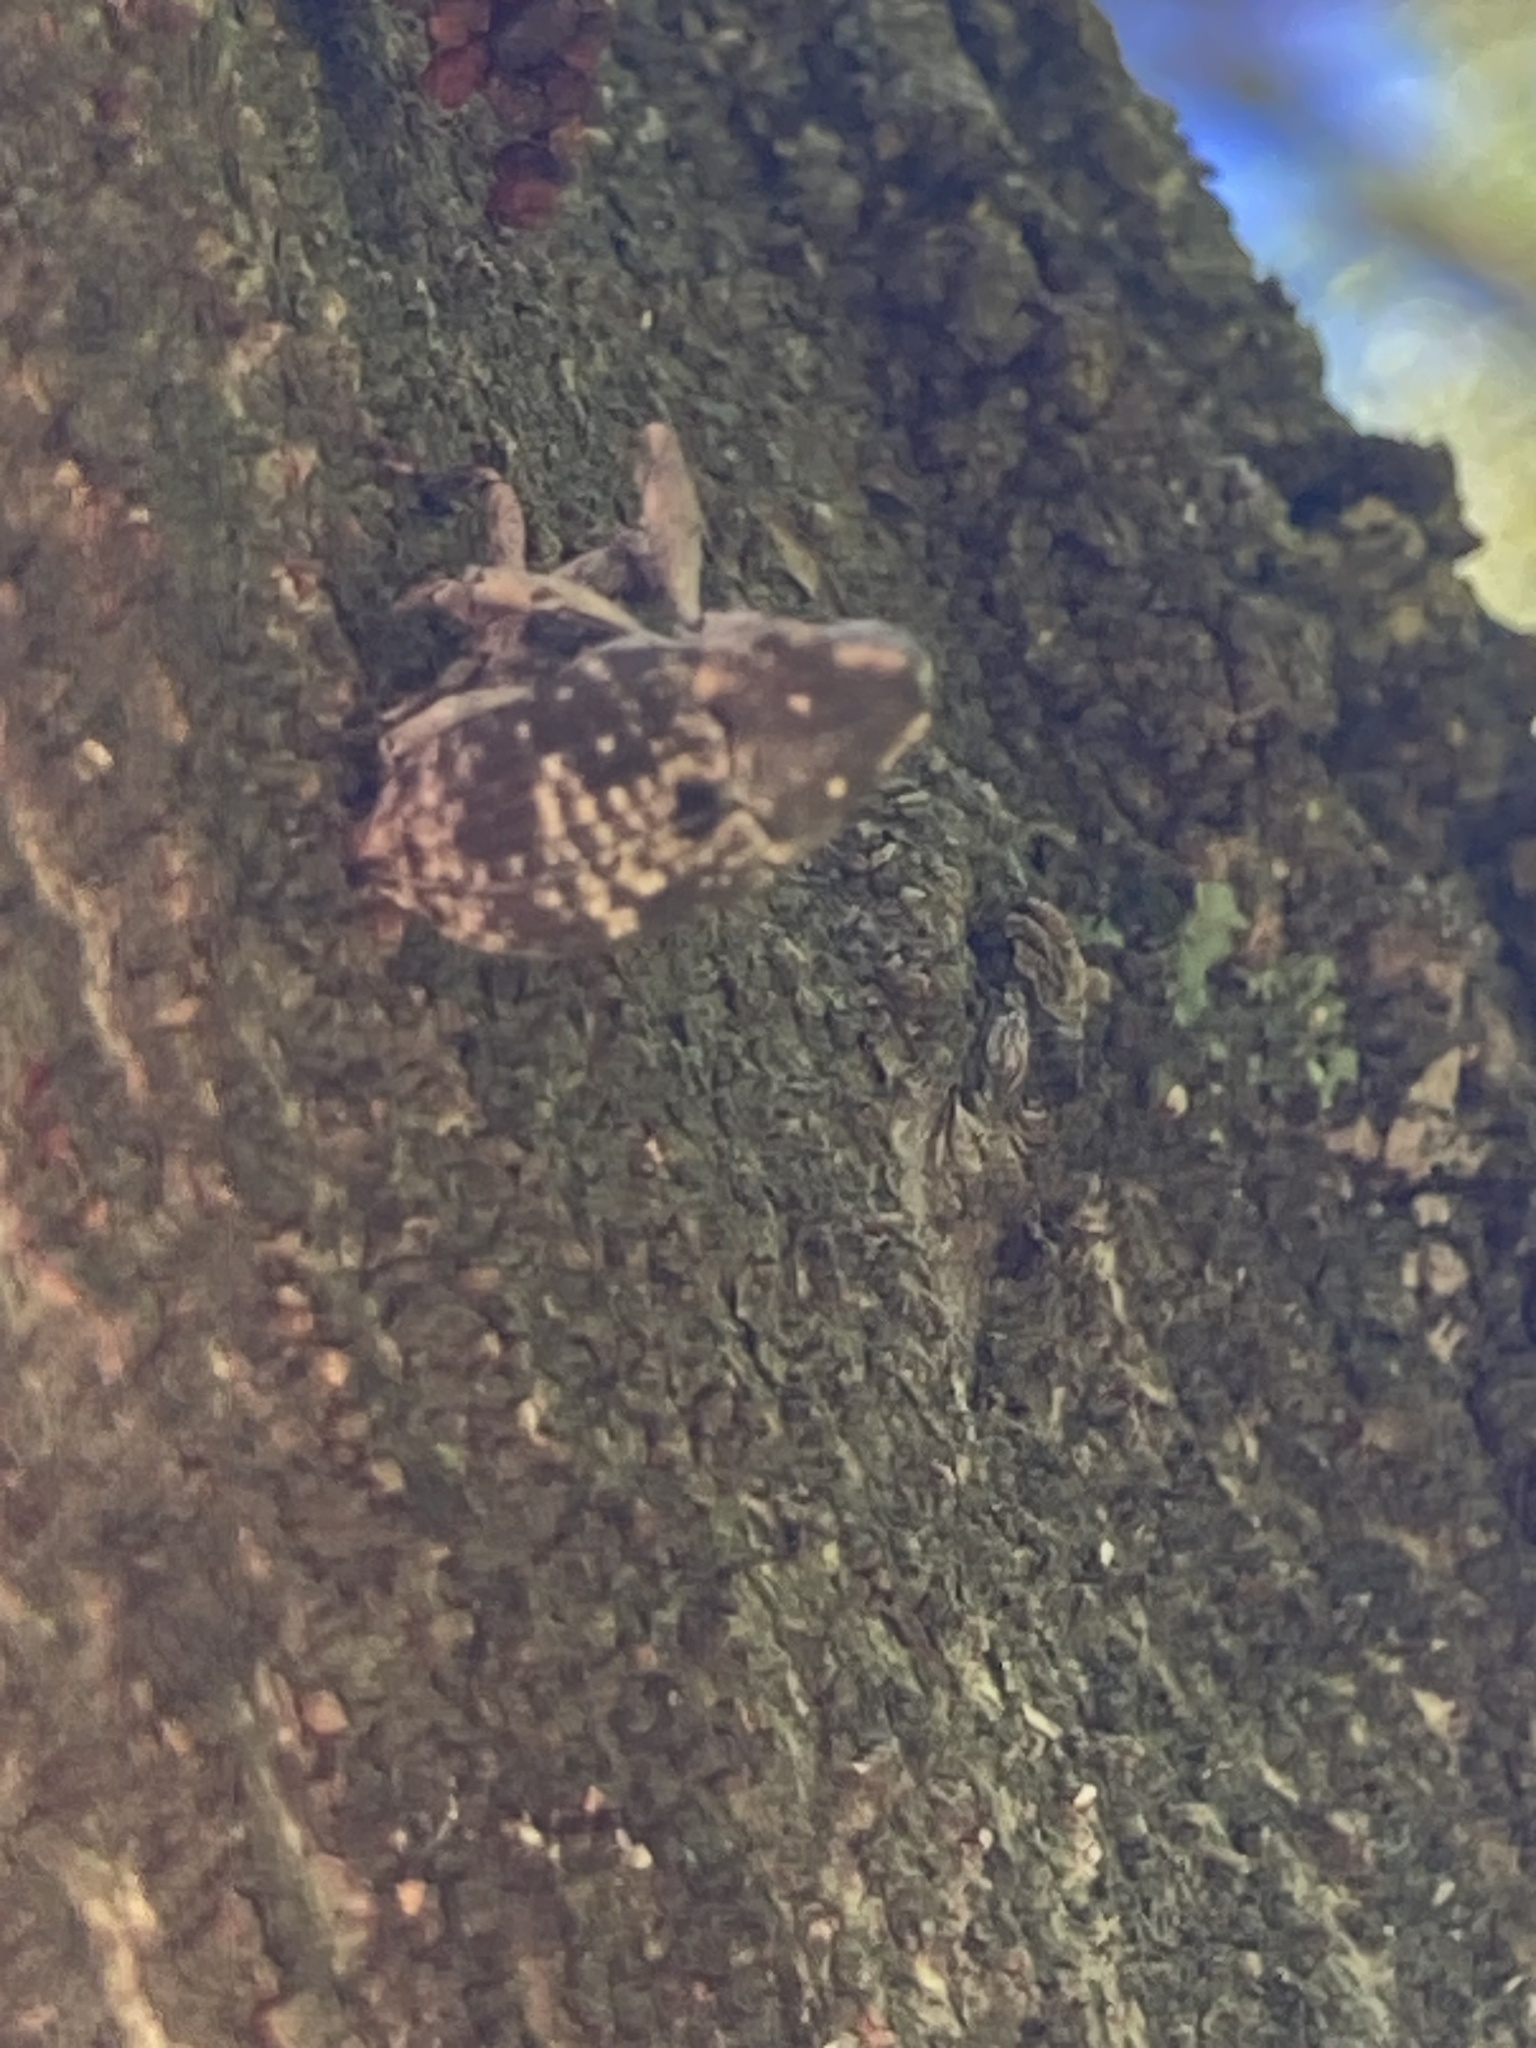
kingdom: Animalia
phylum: Arthropoda
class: Insecta
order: Coleoptera
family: Curculionidae
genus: Eutyrhinus
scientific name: Eutyrhinus meditabundus
